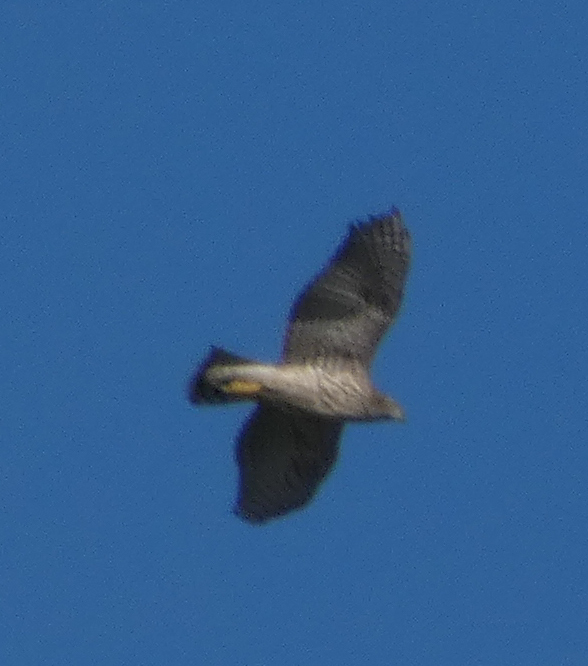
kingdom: Animalia
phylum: Chordata
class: Aves
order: Accipitriformes
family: Accipitridae
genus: Accipiter
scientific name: Accipiter gentilis
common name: Northern goshawk
